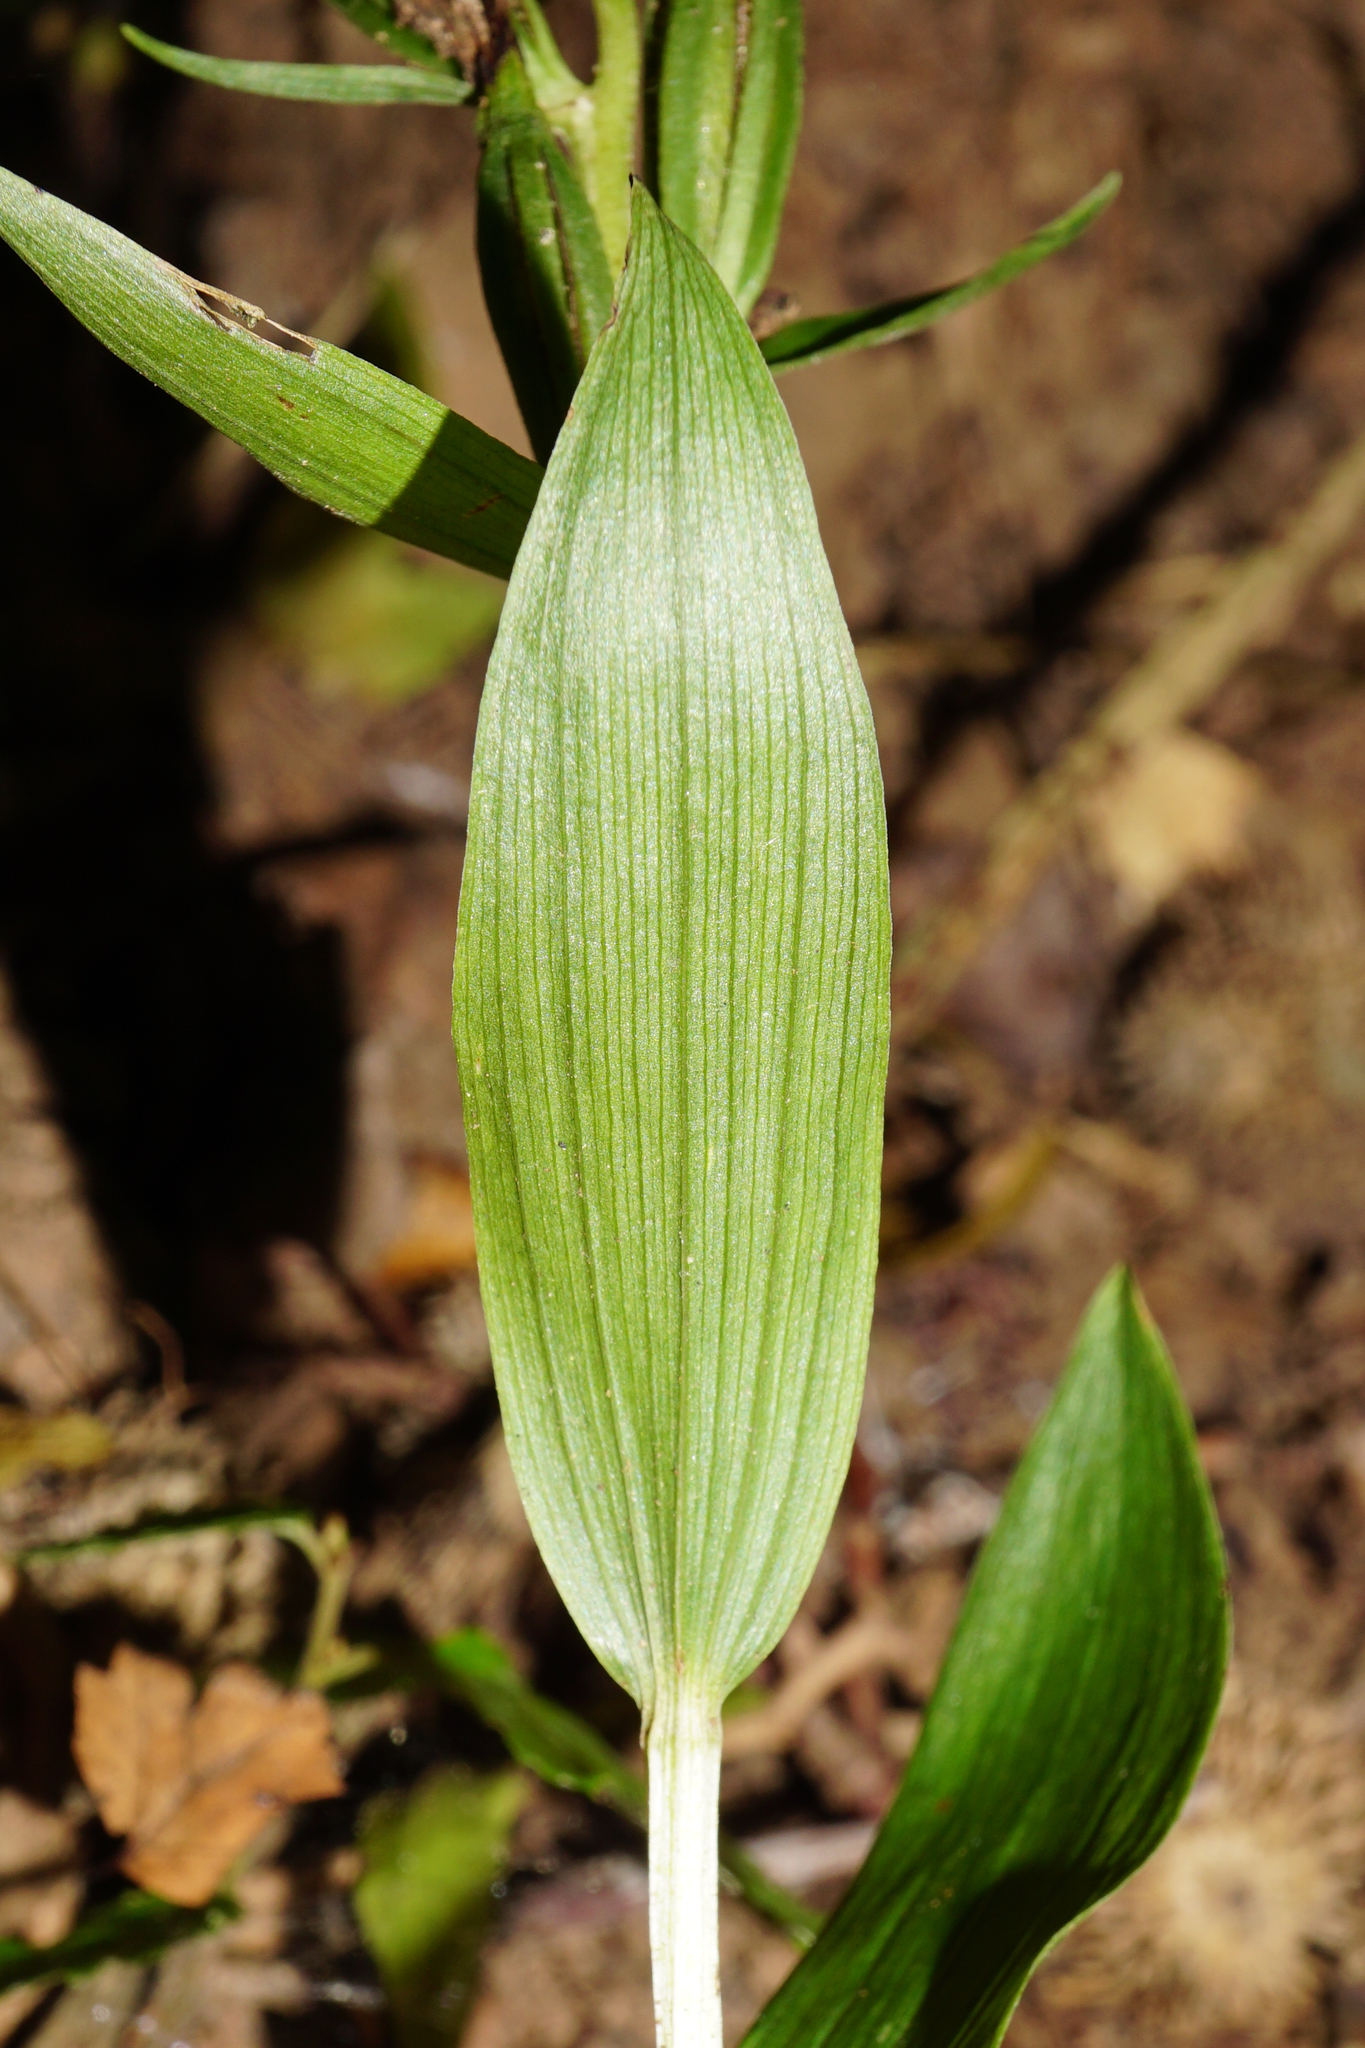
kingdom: Plantae
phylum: Tracheophyta
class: Liliopsida
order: Asparagales
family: Orchidaceae
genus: Cephalanthera
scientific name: Cephalanthera damasonium
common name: White helleborine
